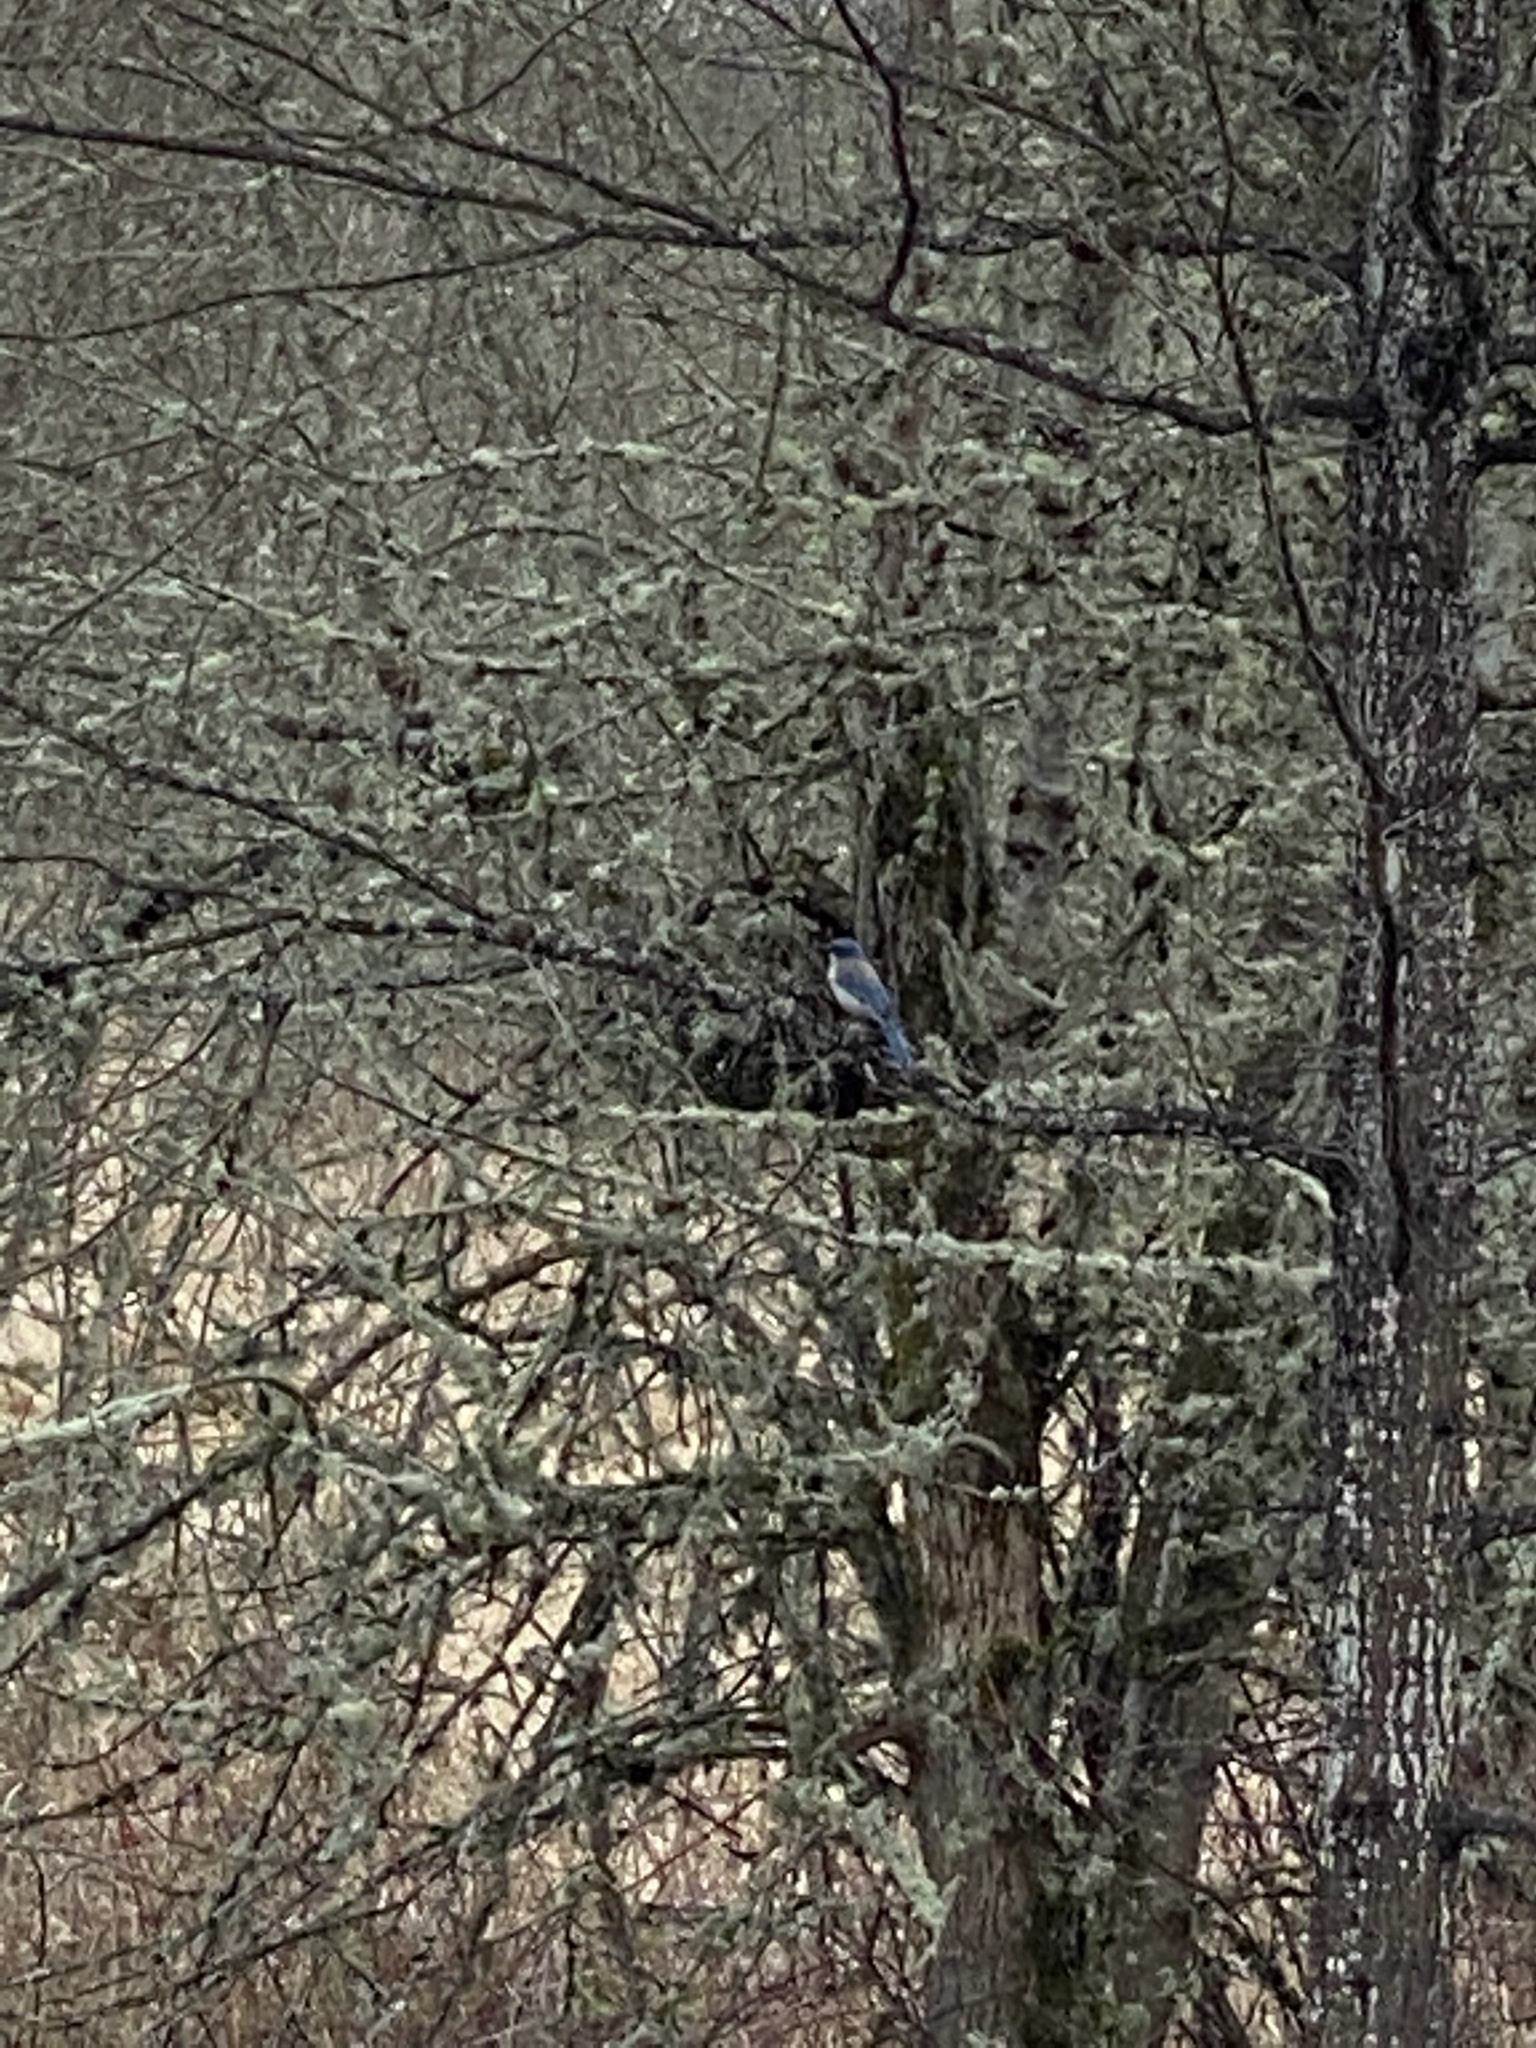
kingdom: Animalia
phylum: Chordata
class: Aves
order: Passeriformes
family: Corvidae
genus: Aphelocoma
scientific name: Aphelocoma californica
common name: California scrub-jay
